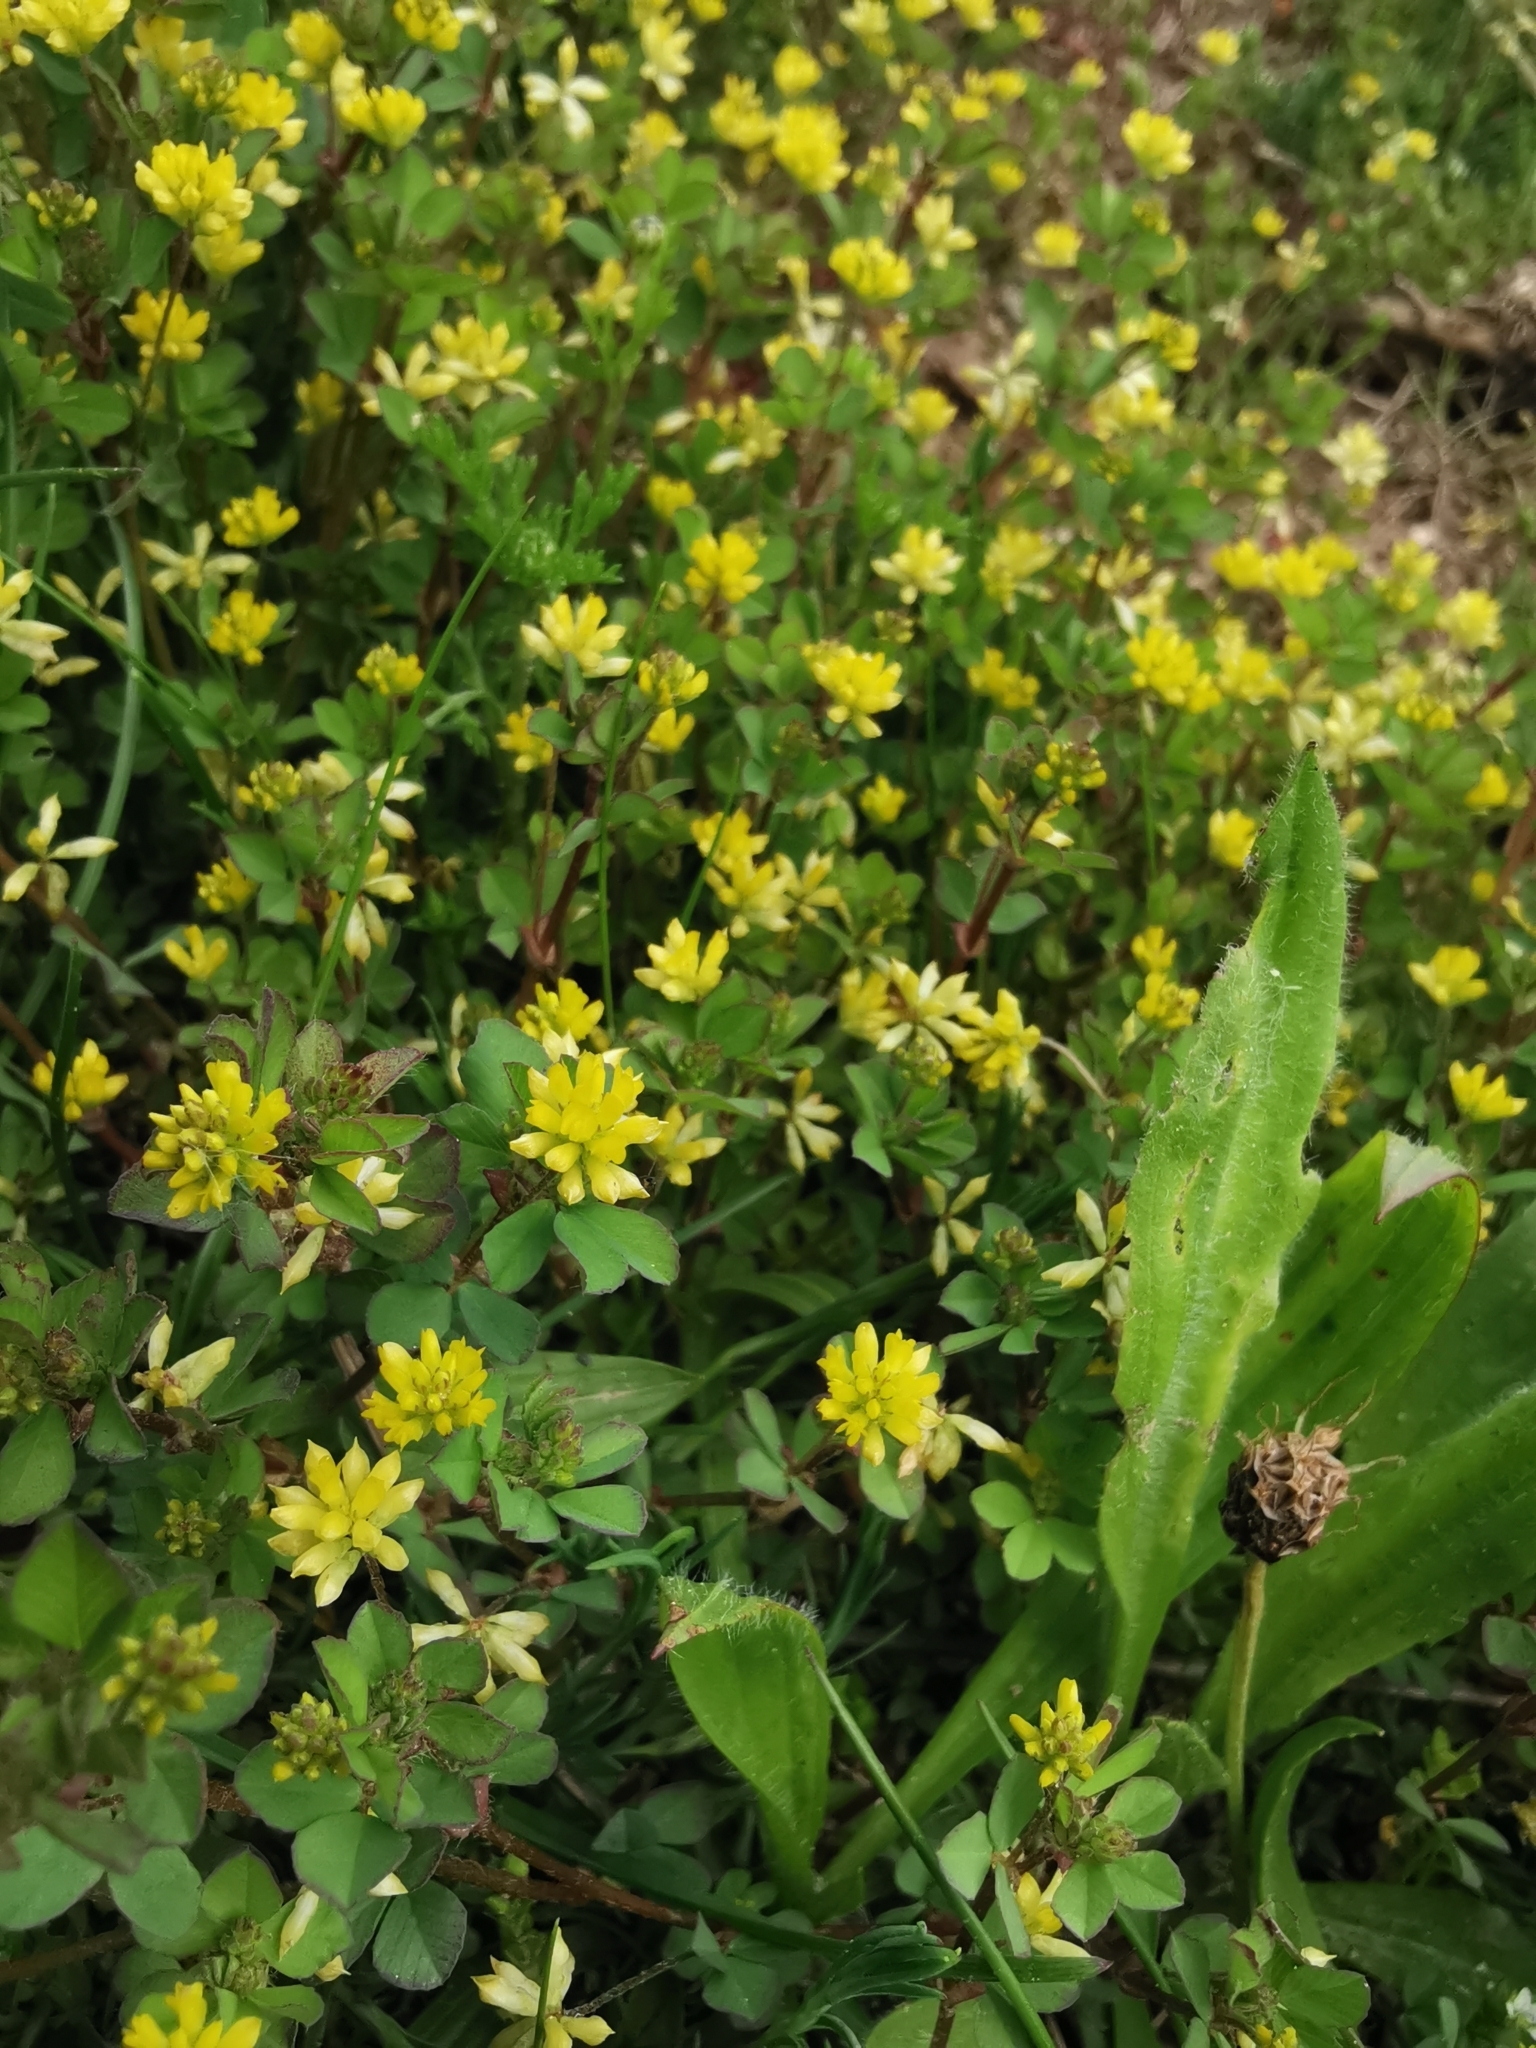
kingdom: Plantae
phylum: Tracheophyta
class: Magnoliopsida
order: Fabales
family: Fabaceae
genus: Trifolium
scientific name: Trifolium dubium
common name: Suckling clover
